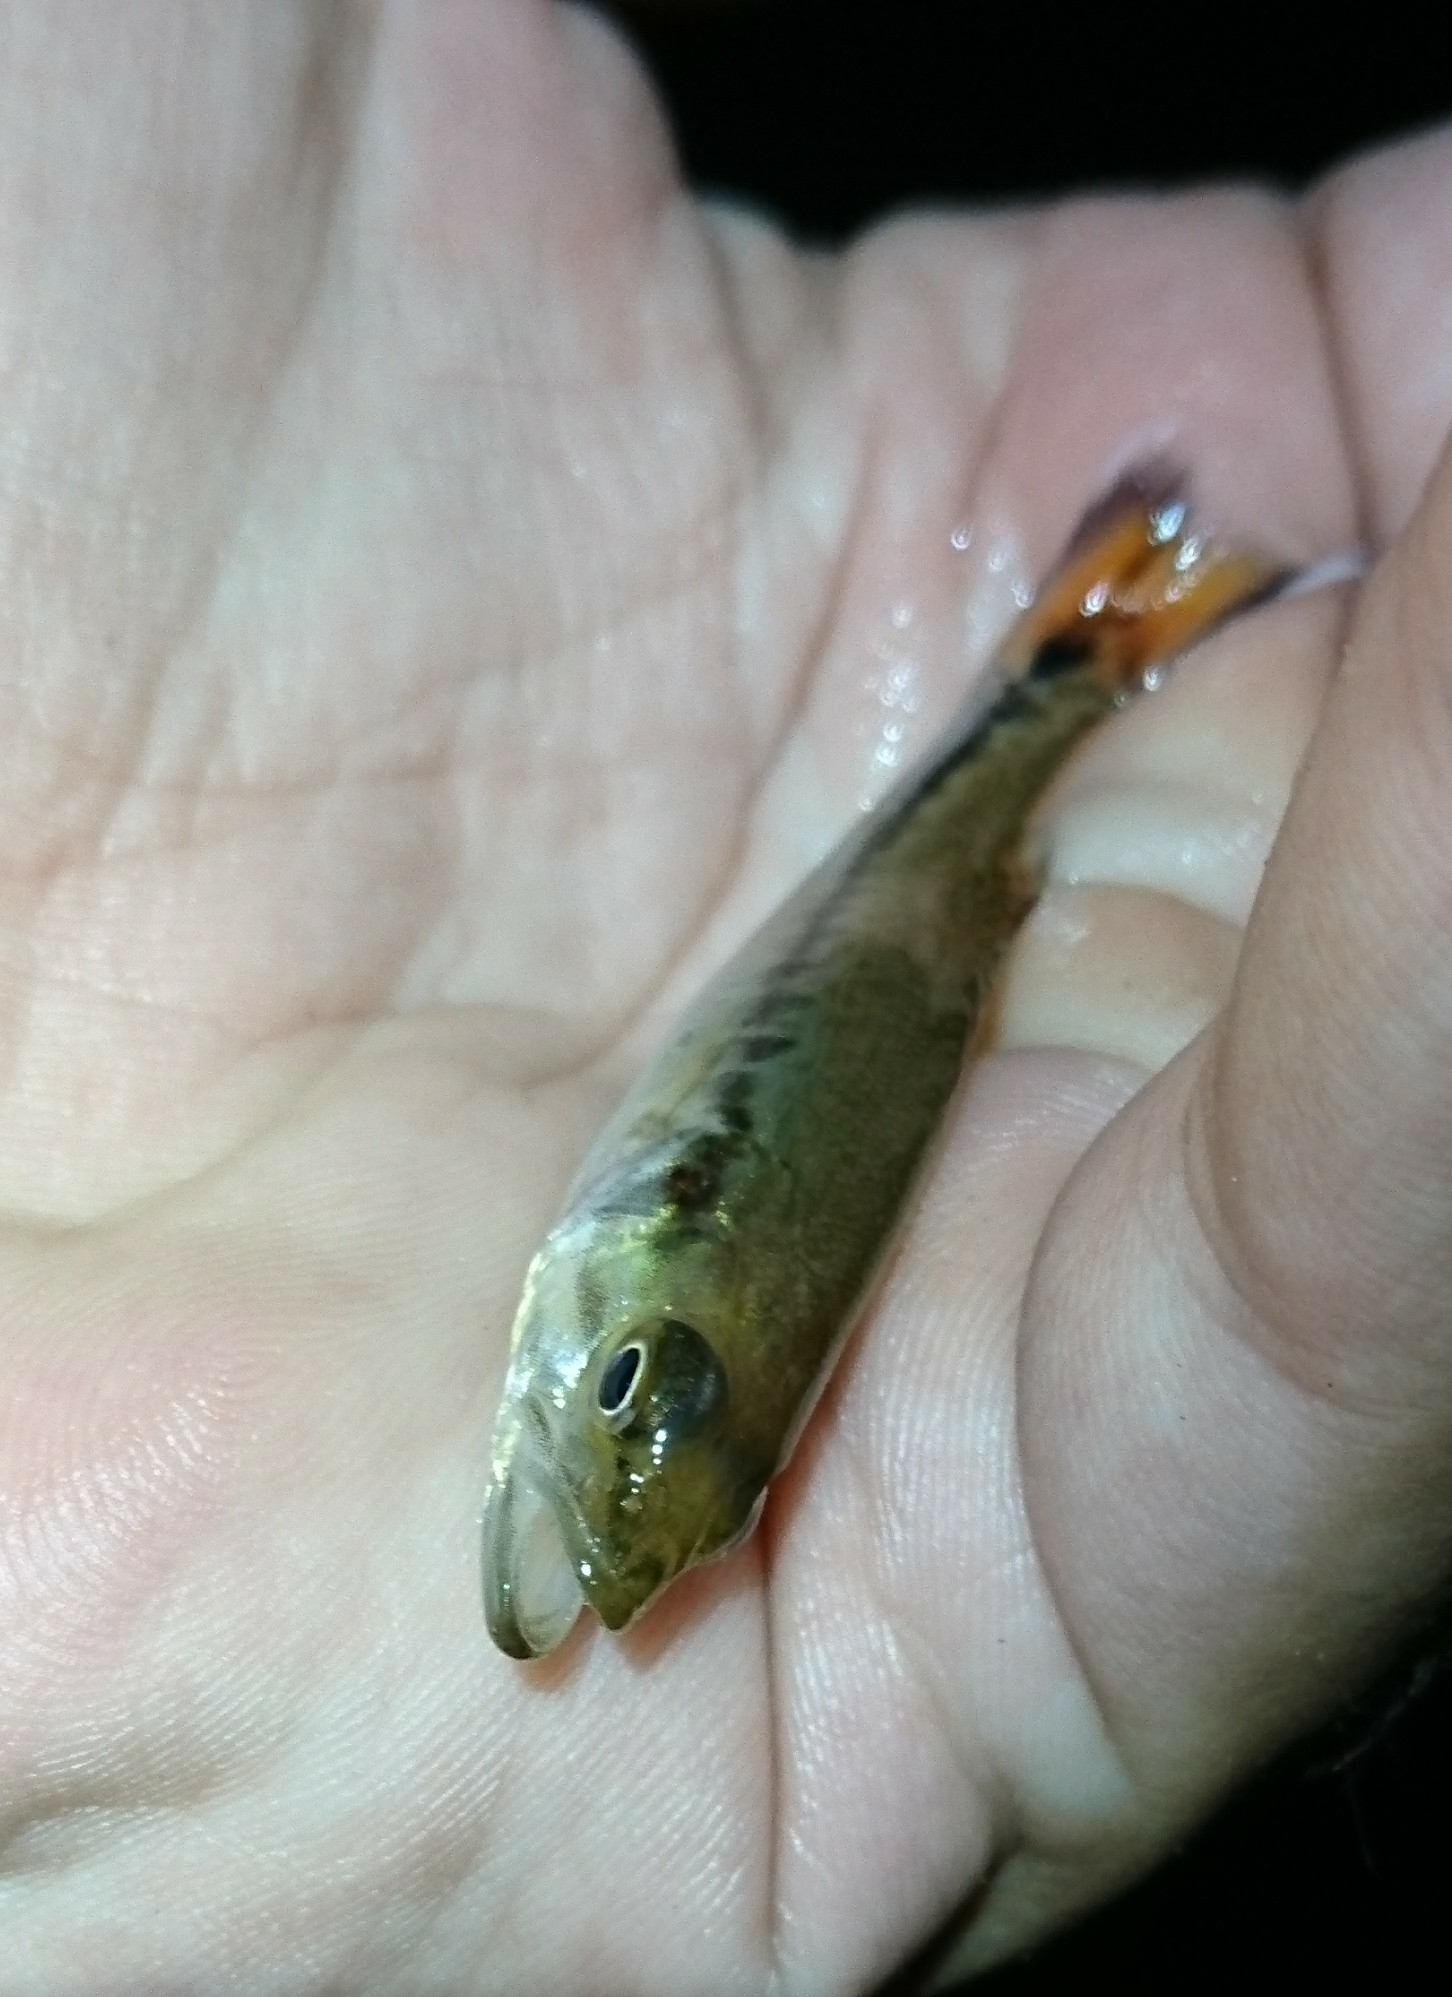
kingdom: Animalia
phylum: Chordata
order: Perciformes
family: Centrarchidae
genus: Micropterus
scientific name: Micropterus
